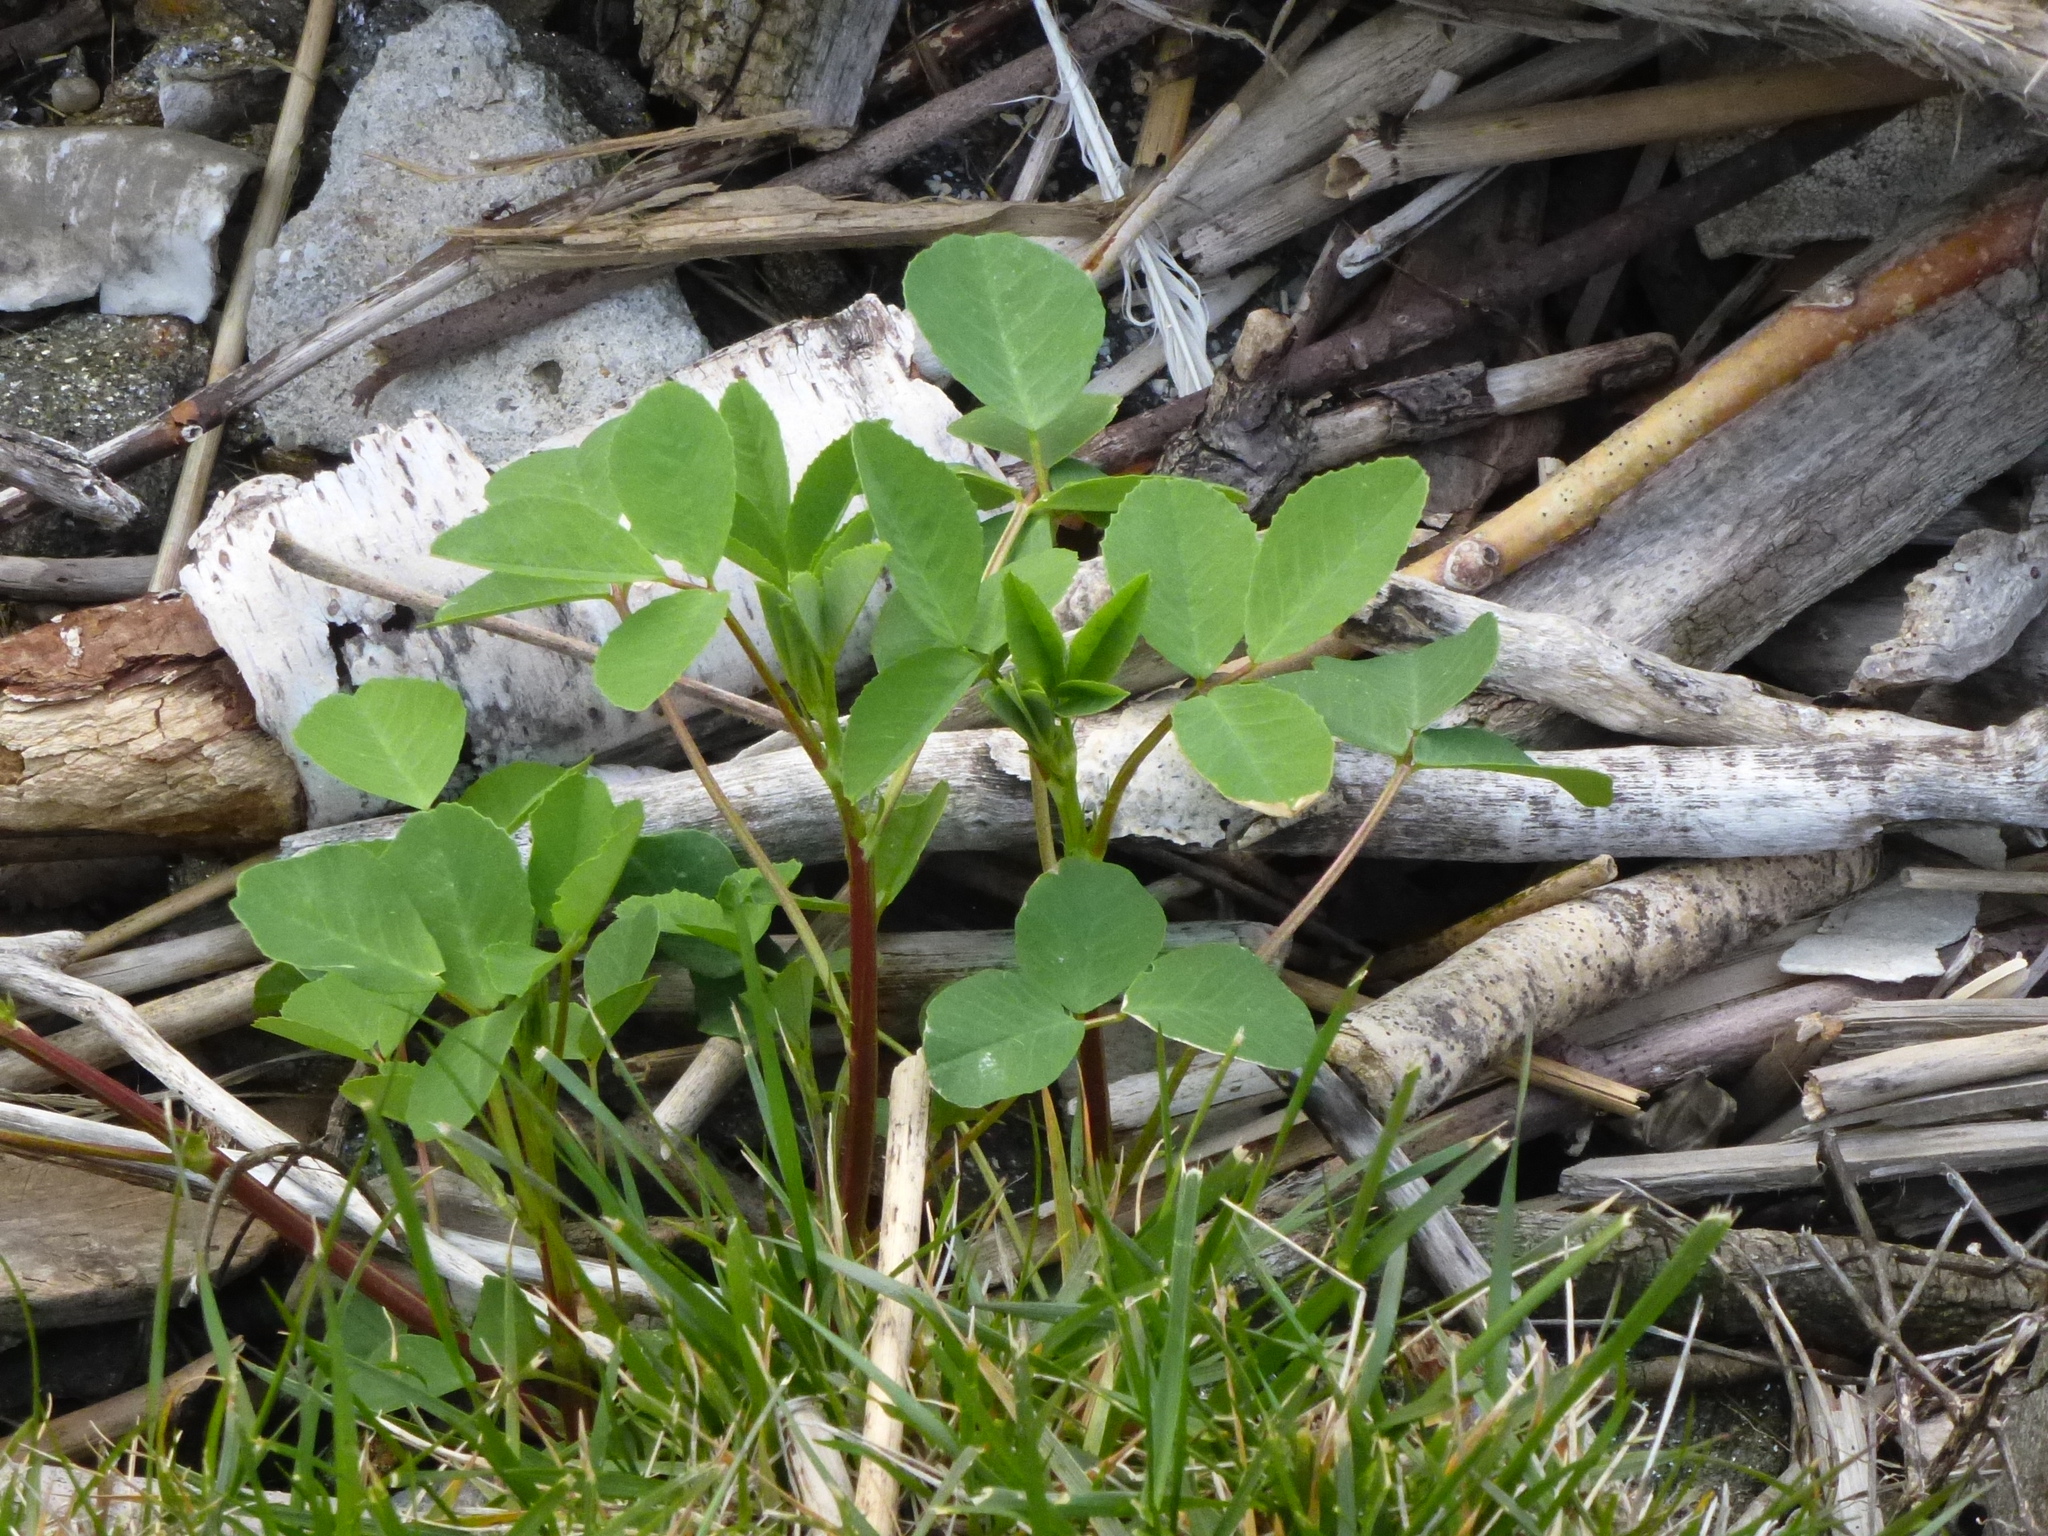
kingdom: Plantae
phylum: Tracheophyta
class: Magnoliopsida
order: Fabales
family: Fabaceae
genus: Melilotus
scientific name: Melilotus
